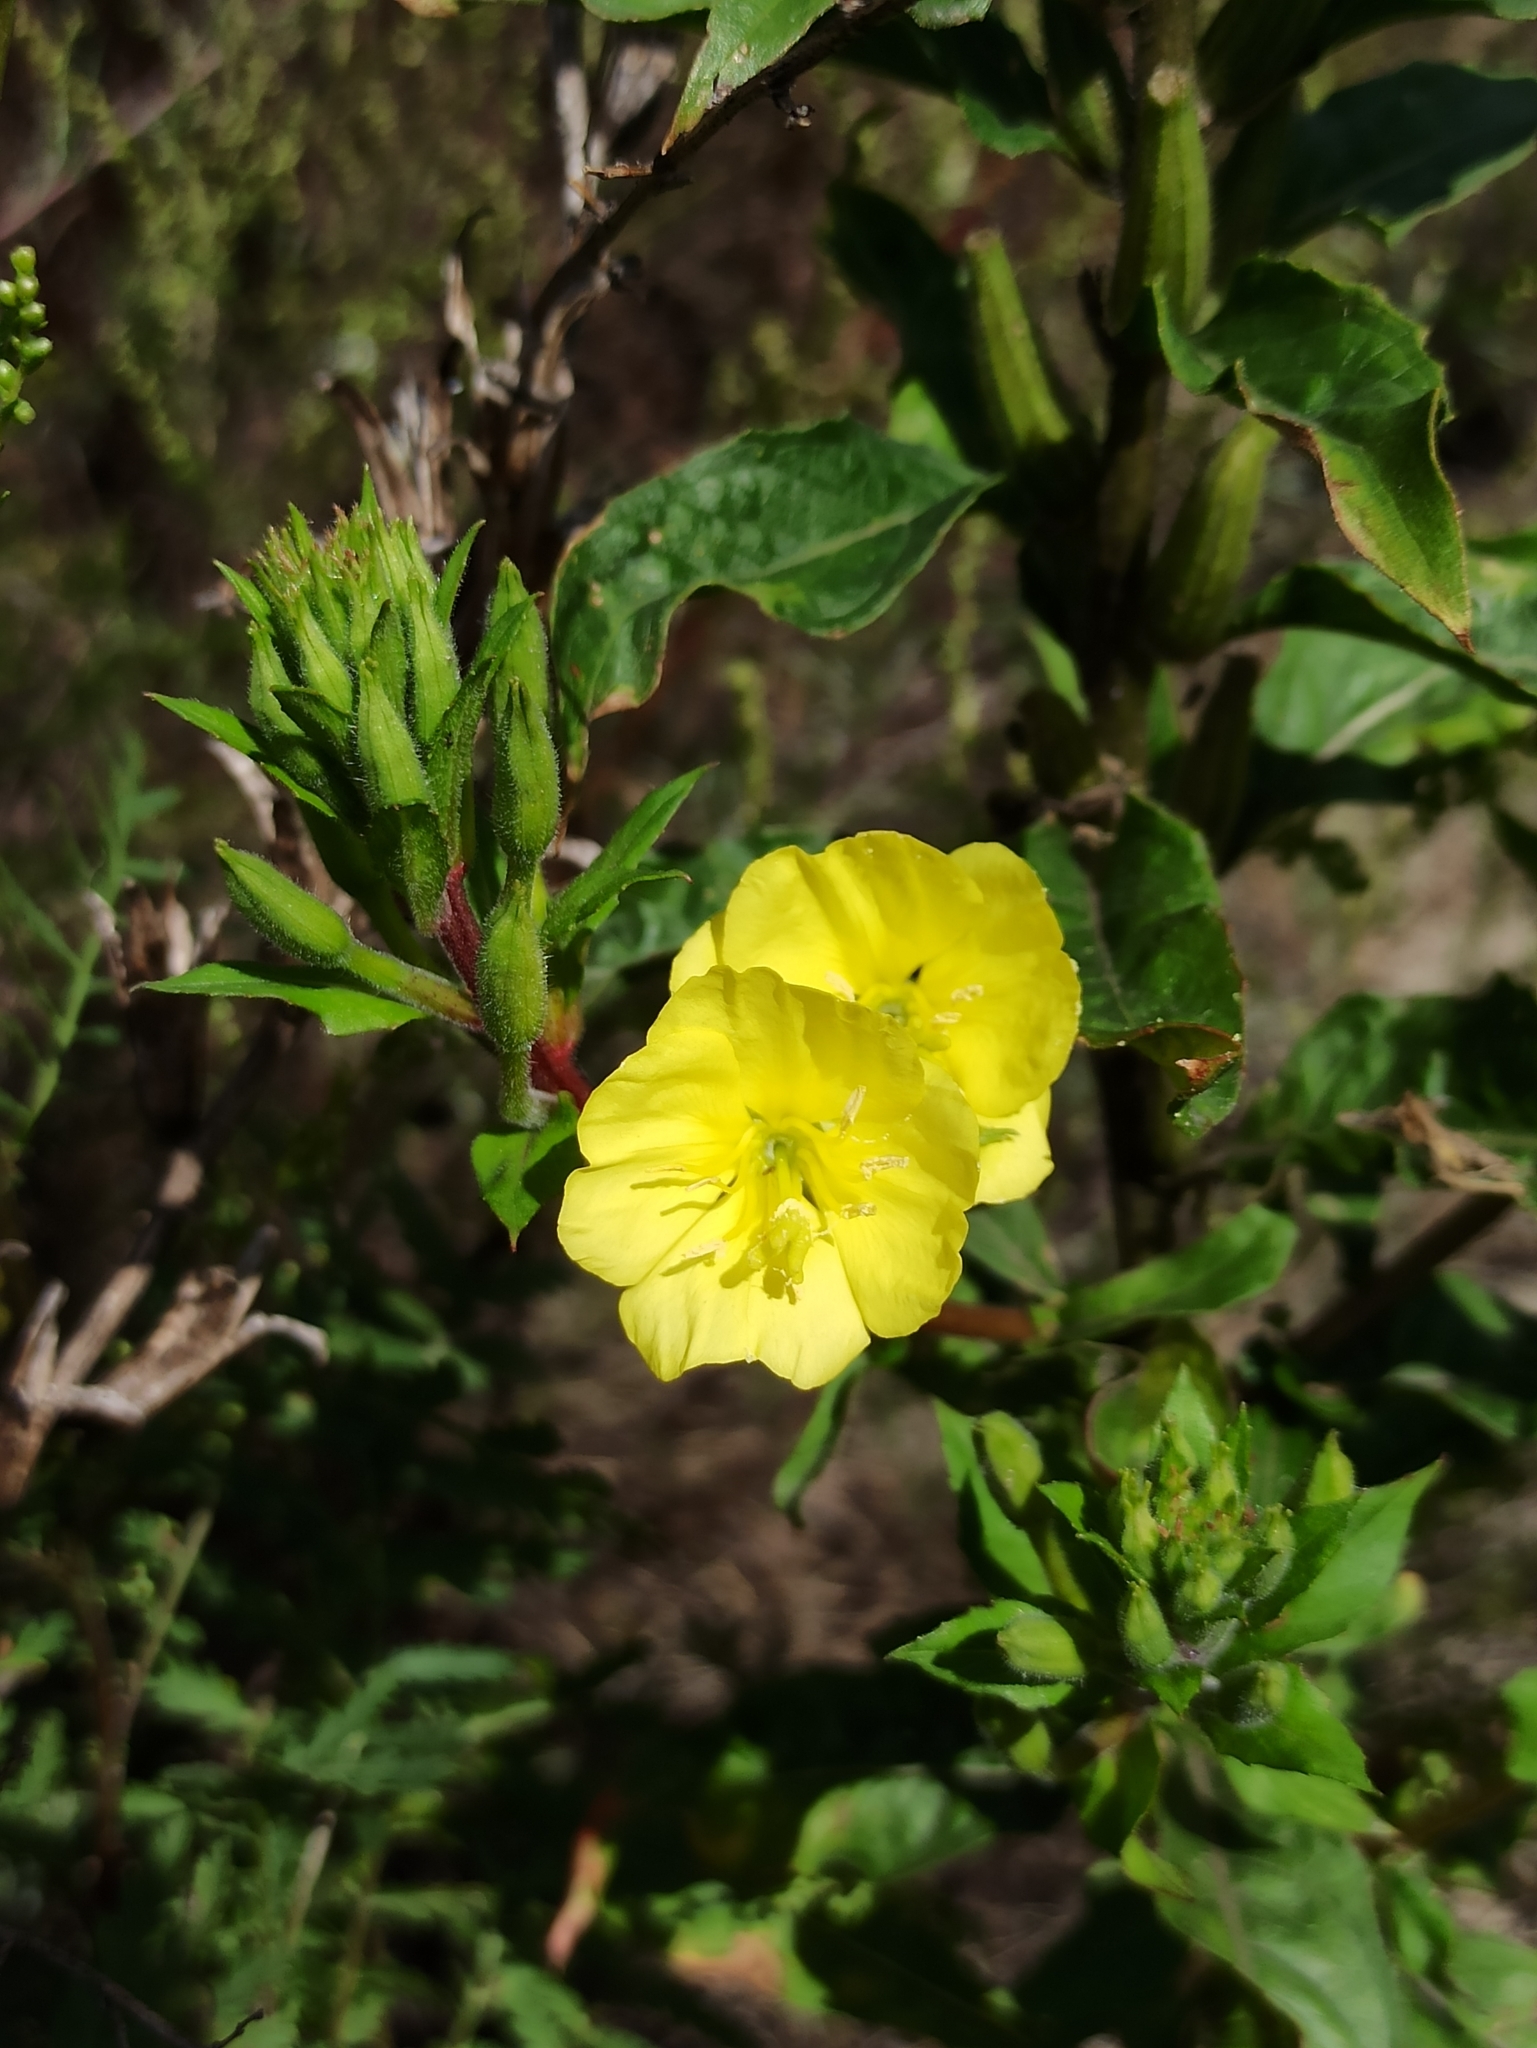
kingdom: Plantae
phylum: Tracheophyta
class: Magnoliopsida
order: Myrtales
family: Onagraceae
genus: Oenothera
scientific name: Oenothera rubricaulis
